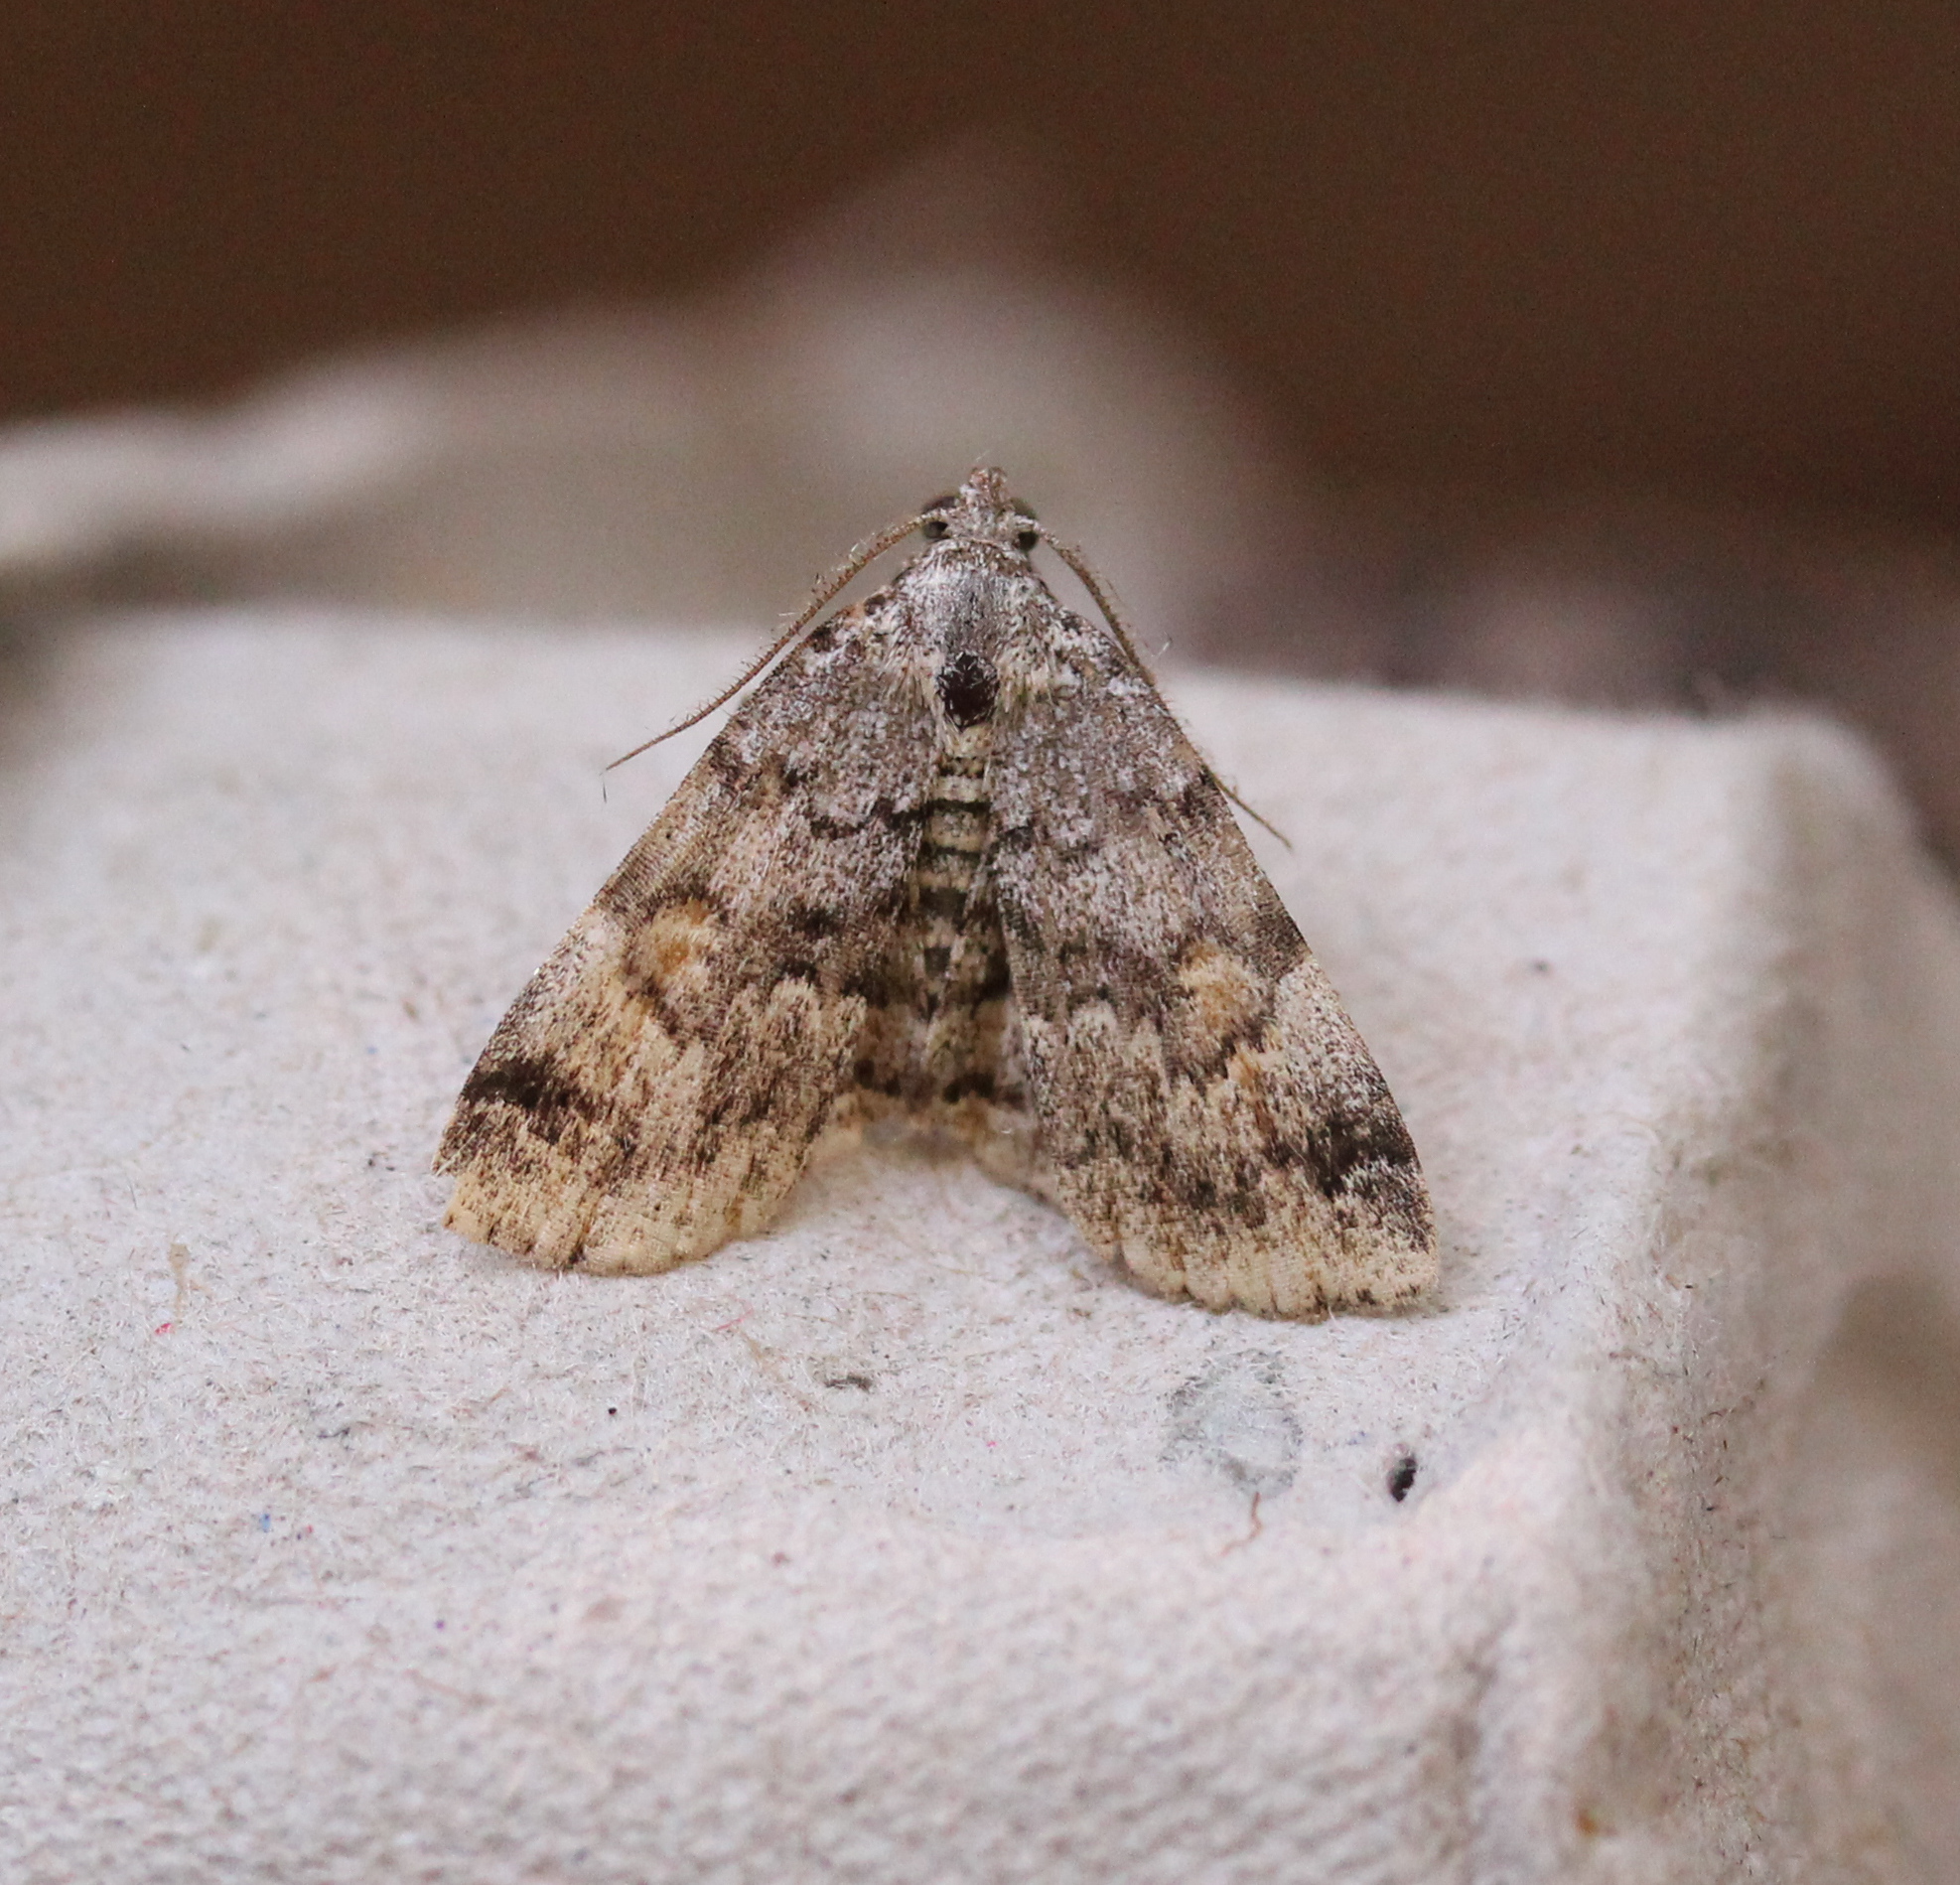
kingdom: Animalia
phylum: Arthropoda
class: Insecta
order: Lepidoptera
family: Erebidae
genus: Idia
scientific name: Idia americalis
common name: American idia moth
